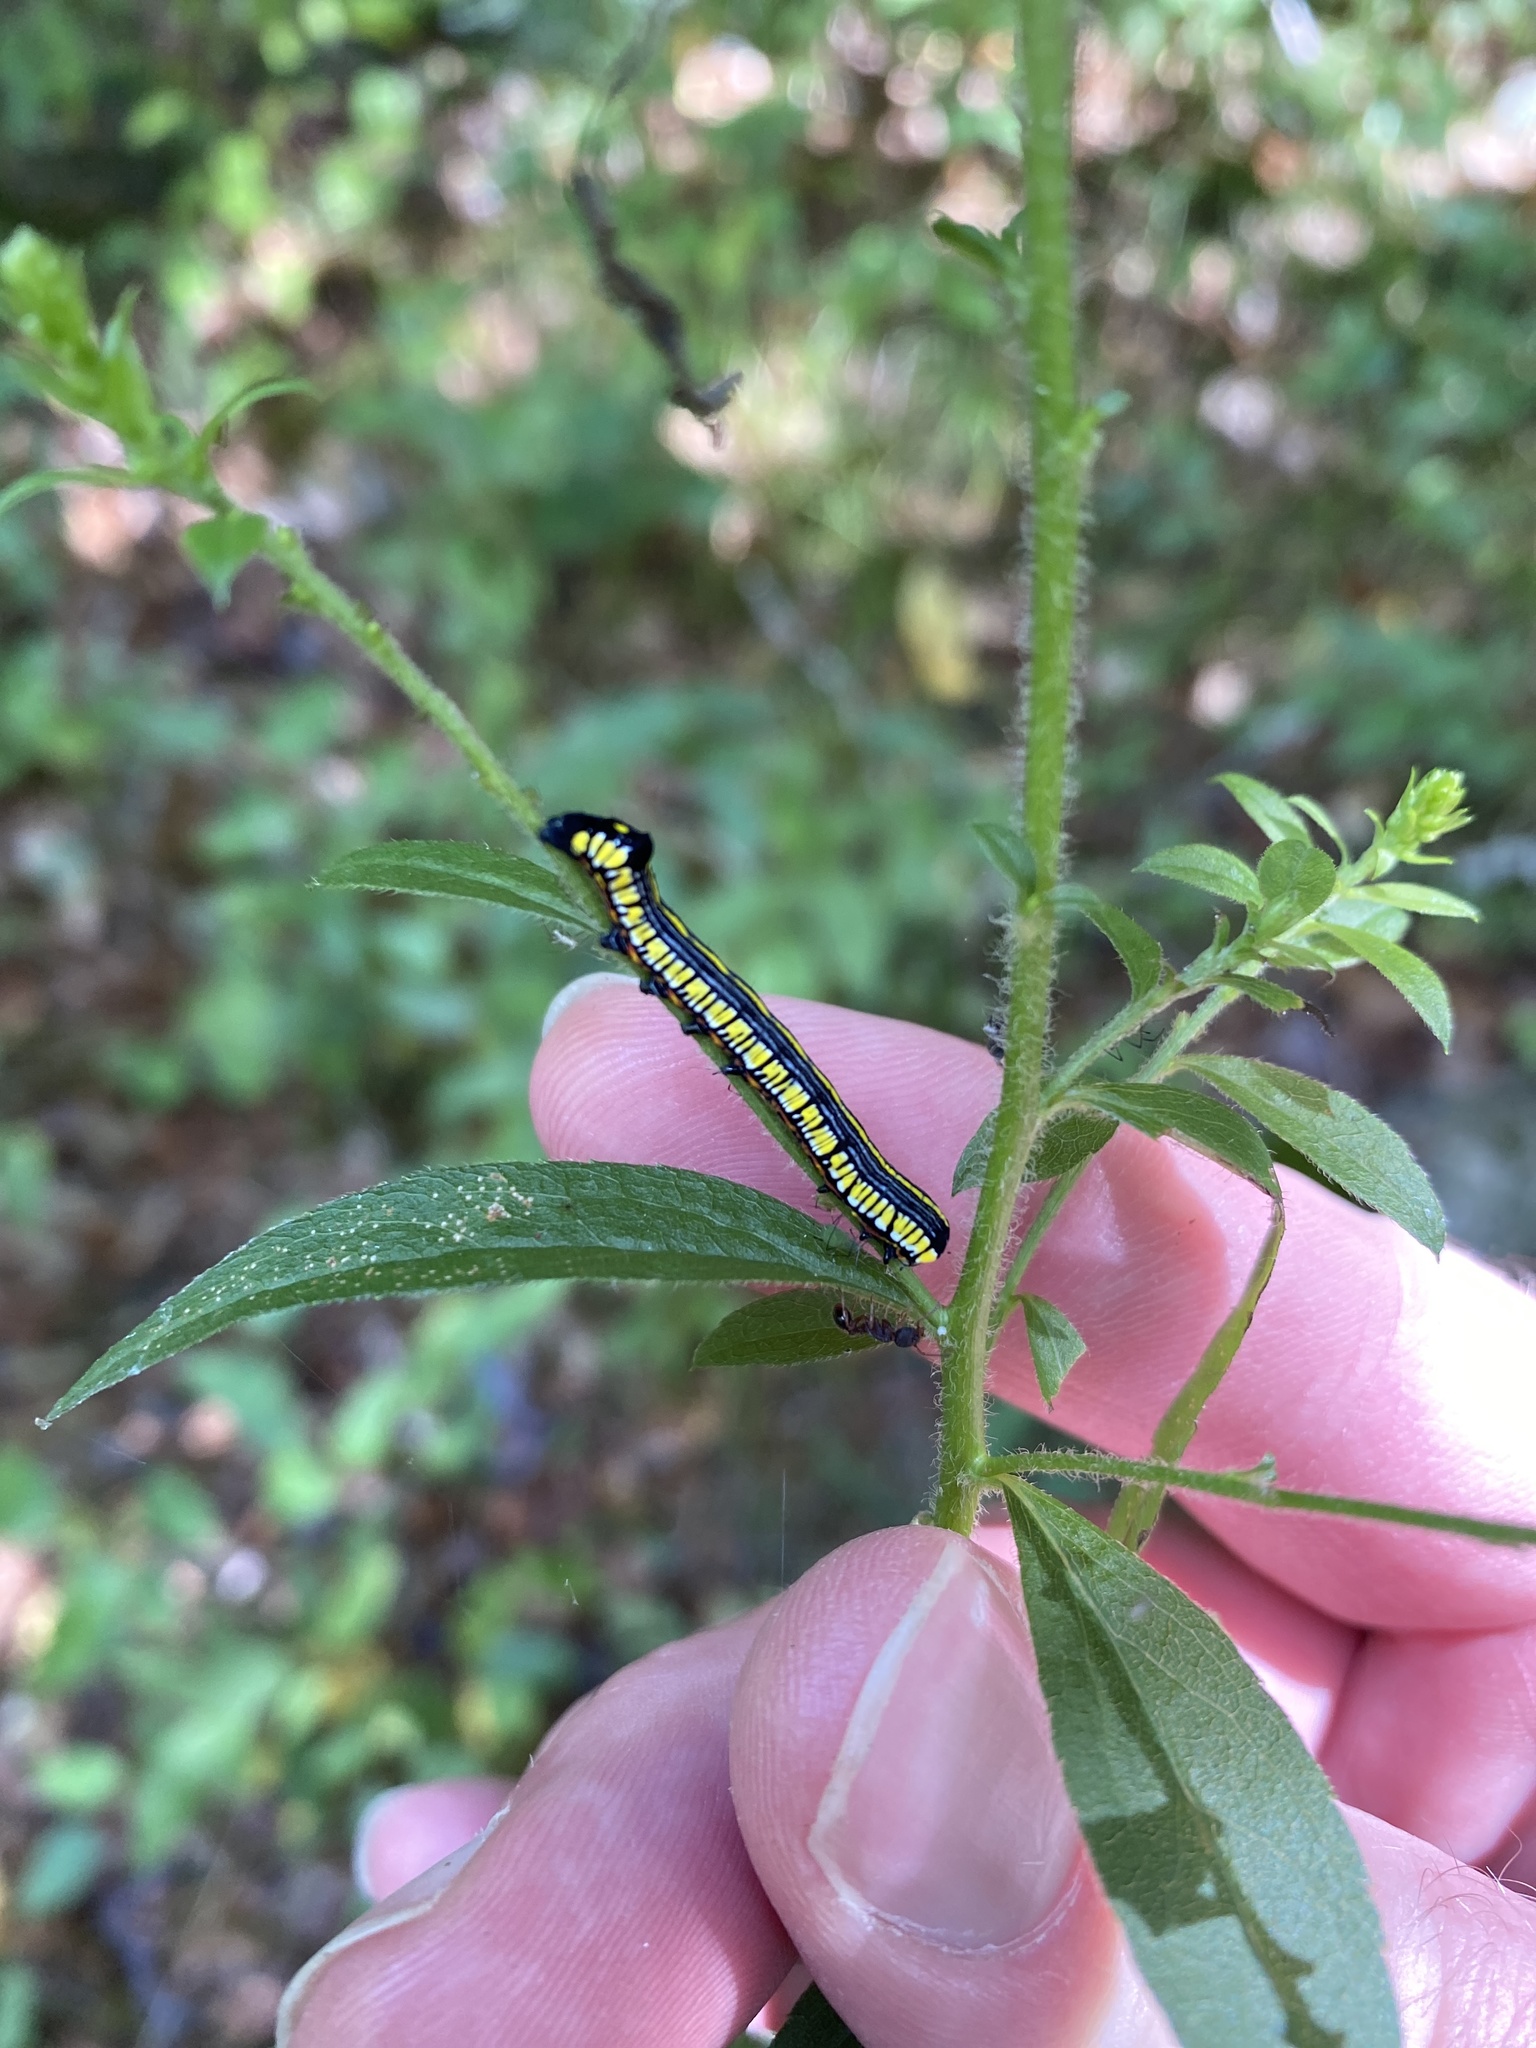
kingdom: Animalia
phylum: Arthropoda
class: Insecta
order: Lepidoptera
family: Noctuidae
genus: Cucullia
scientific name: Cucullia convexipennis
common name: Brown-hooded owlet
